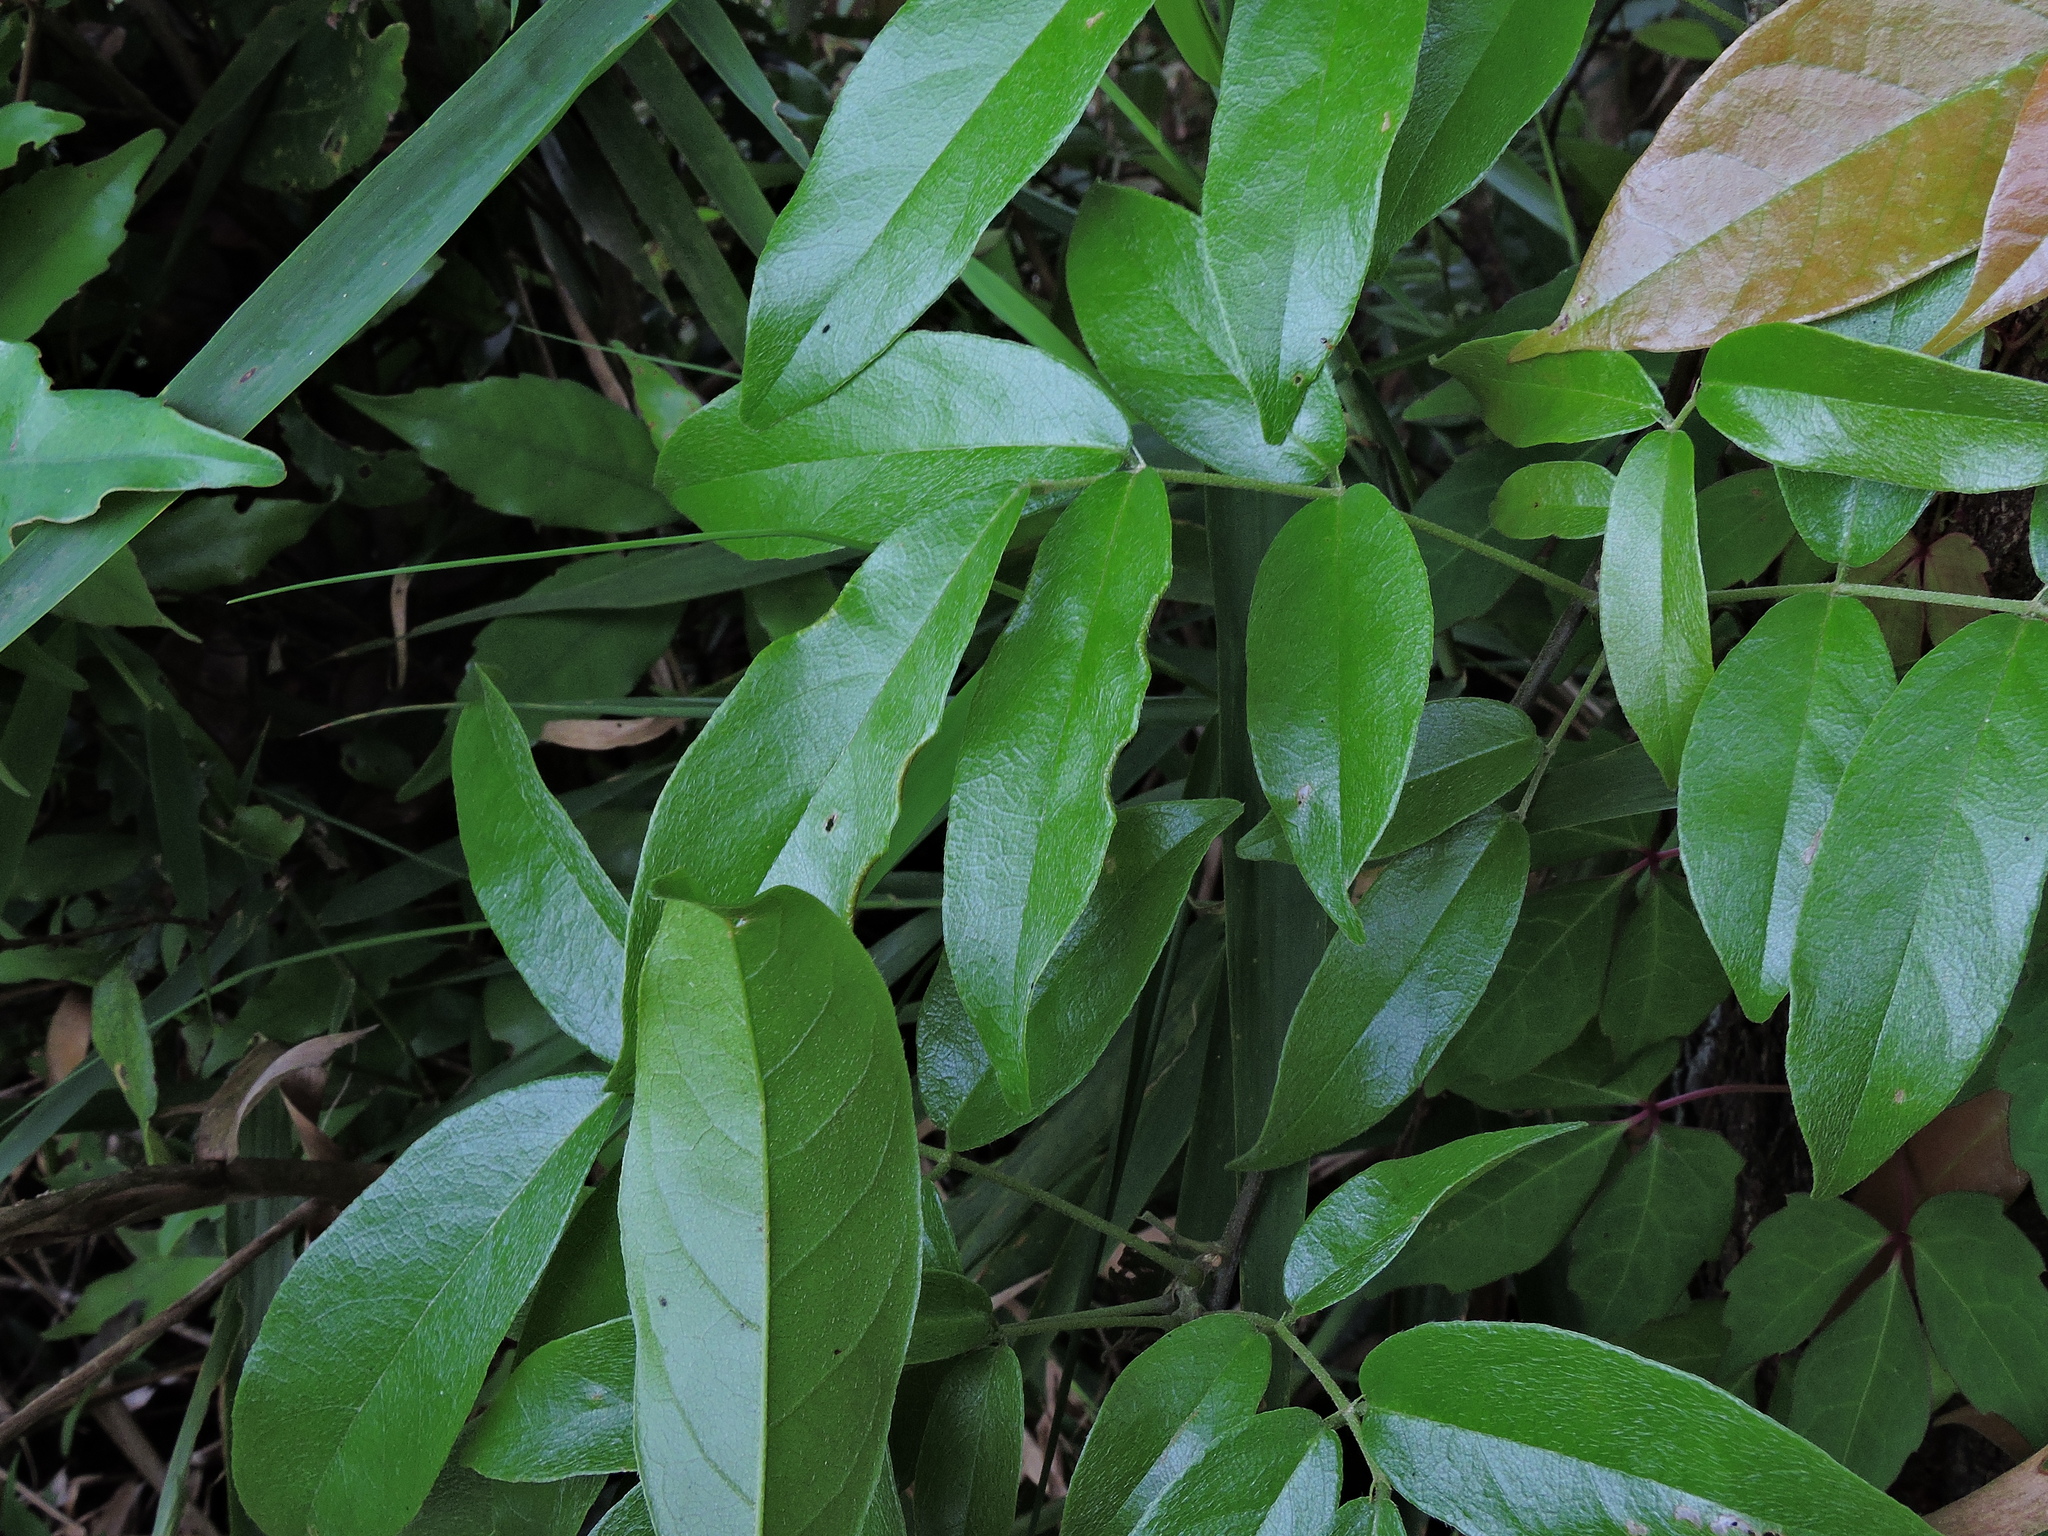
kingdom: Plantae
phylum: Tracheophyta
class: Magnoliopsida
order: Fabales
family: Fabaceae
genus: Callerya
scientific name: Callerya nitida
